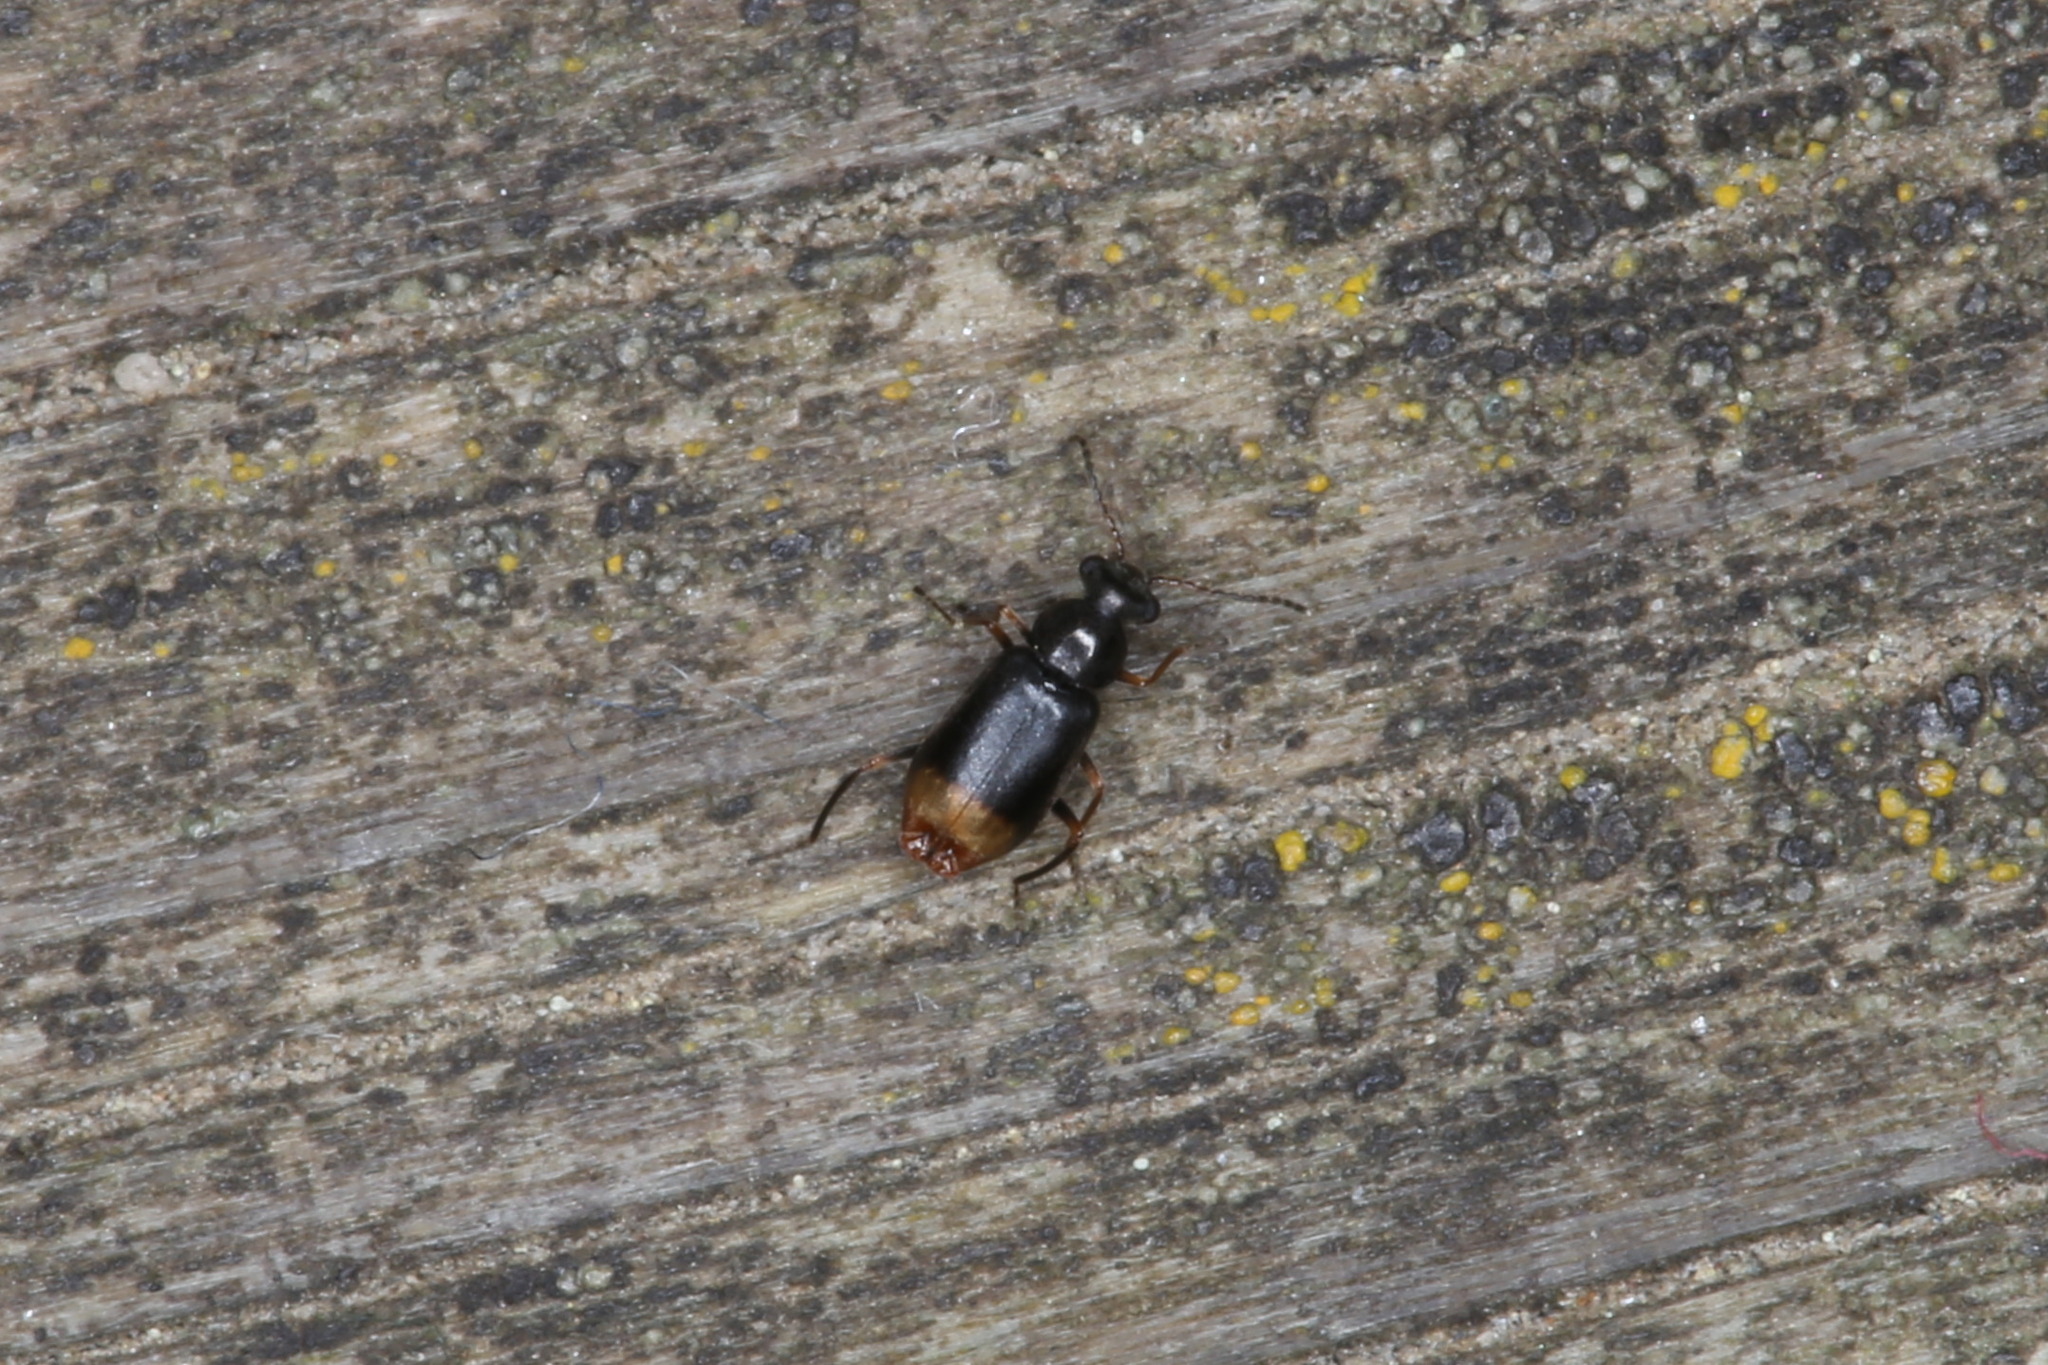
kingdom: Animalia
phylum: Arthropoda
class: Insecta
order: Coleoptera
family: Melyridae
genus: Hypebaeus
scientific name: Hypebaeus flavipes
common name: Moccas beetle
